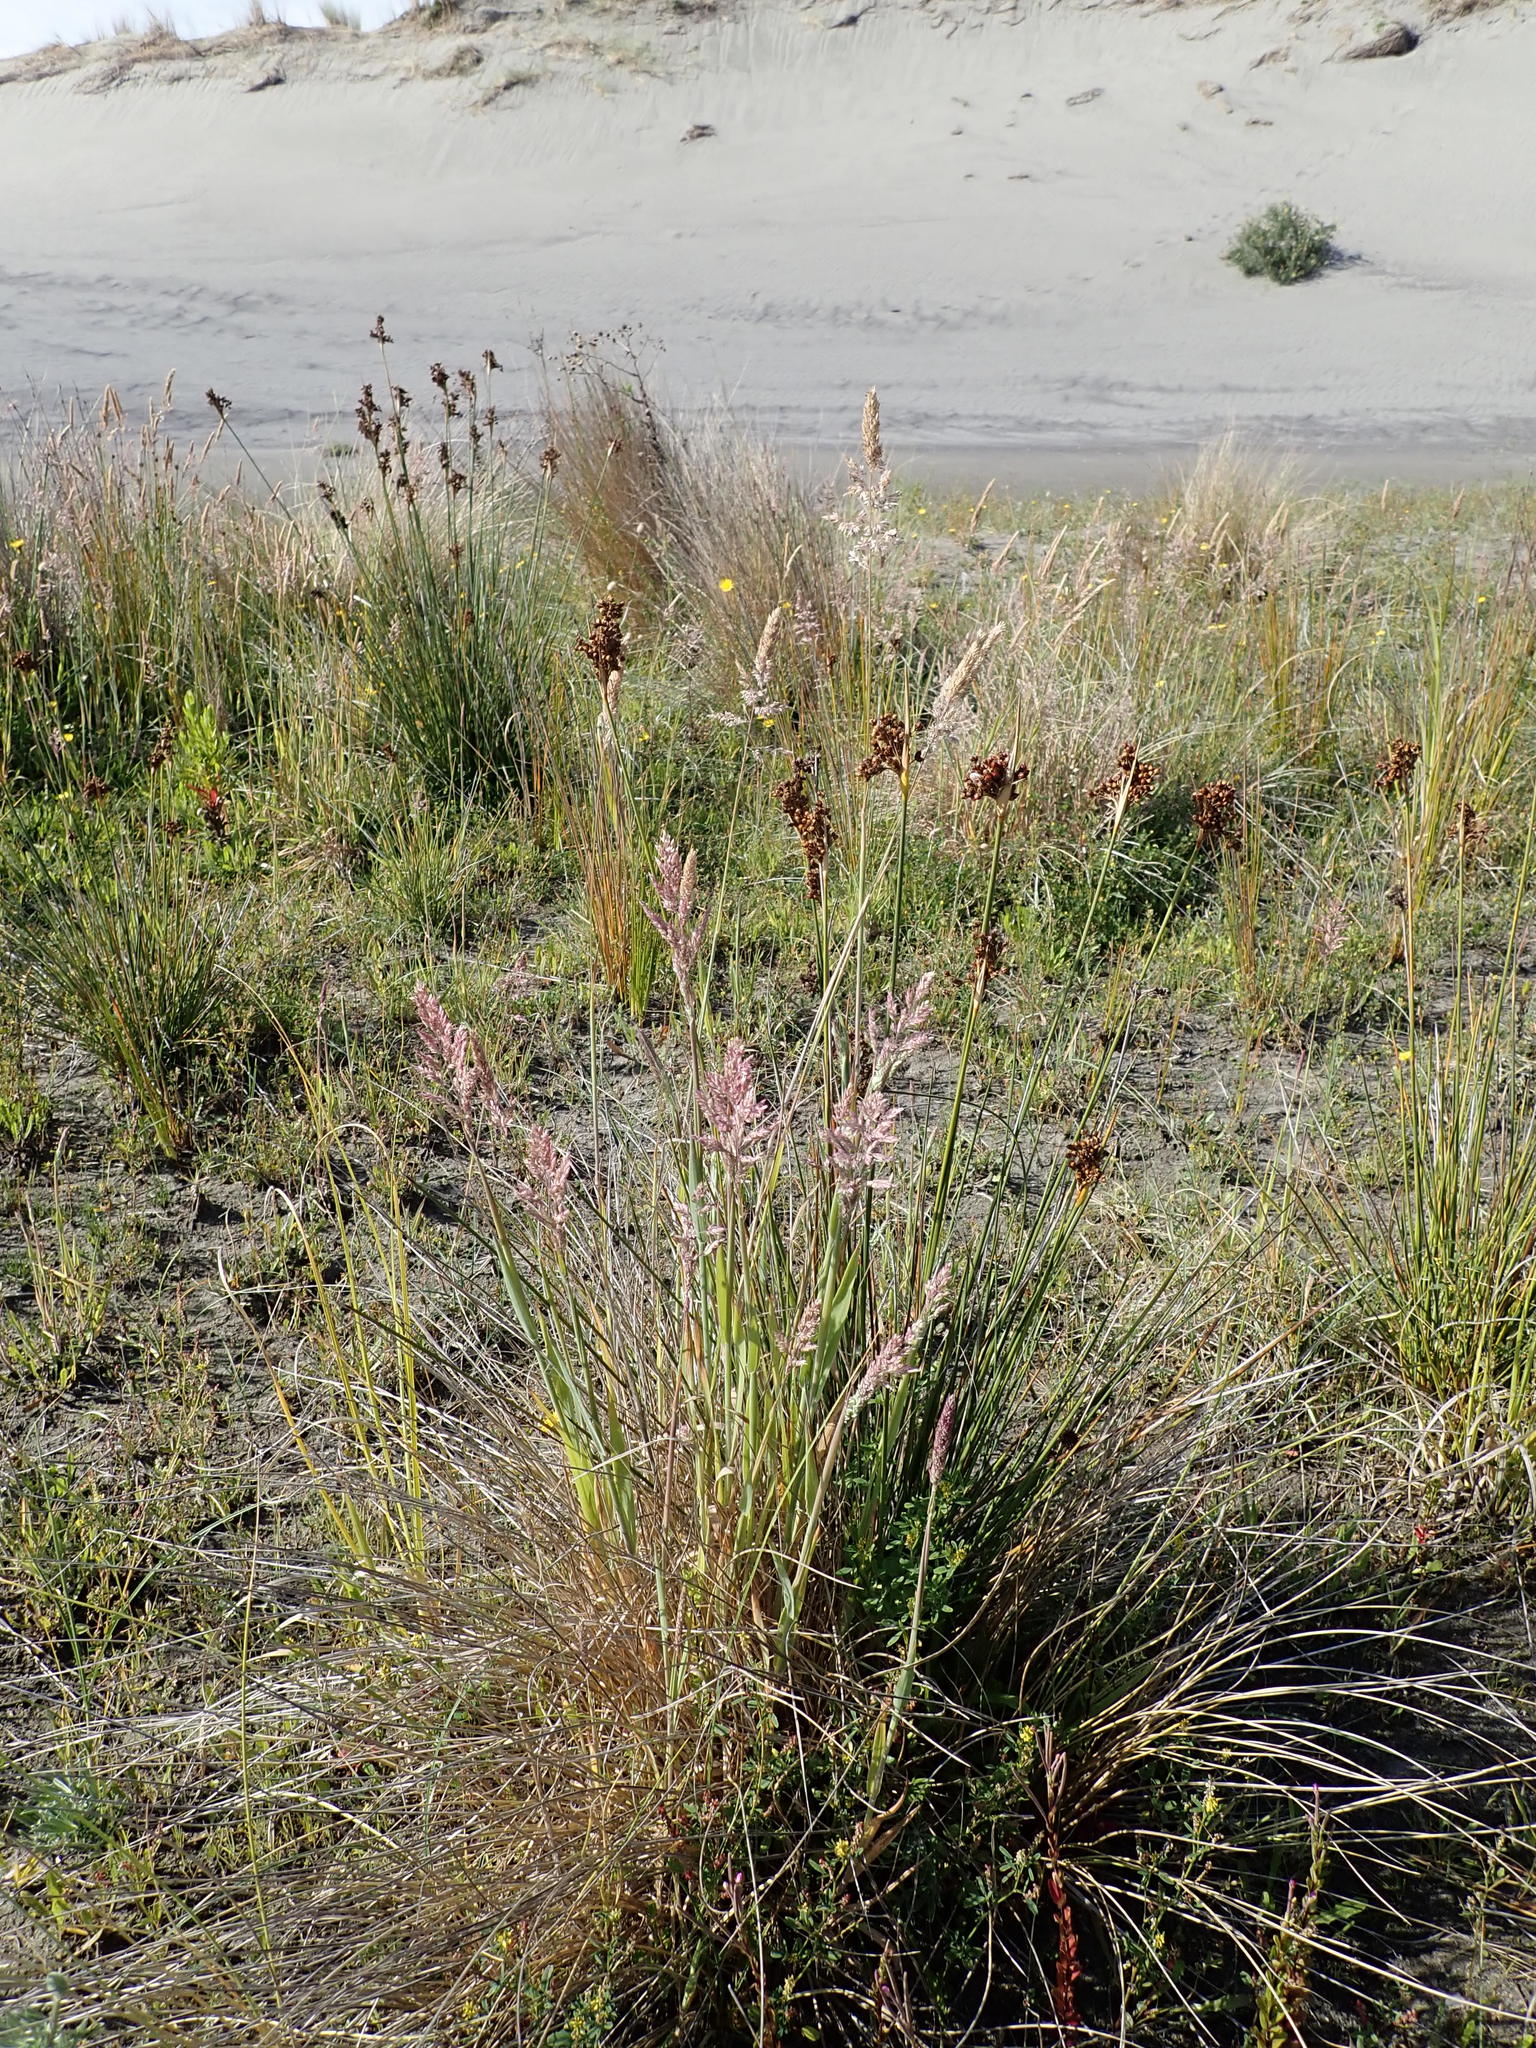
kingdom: Plantae
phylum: Tracheophyta
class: Liliopsida
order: Poales
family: Juncaceae
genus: Juncus
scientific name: Juncus acutus
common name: Sharp rush
